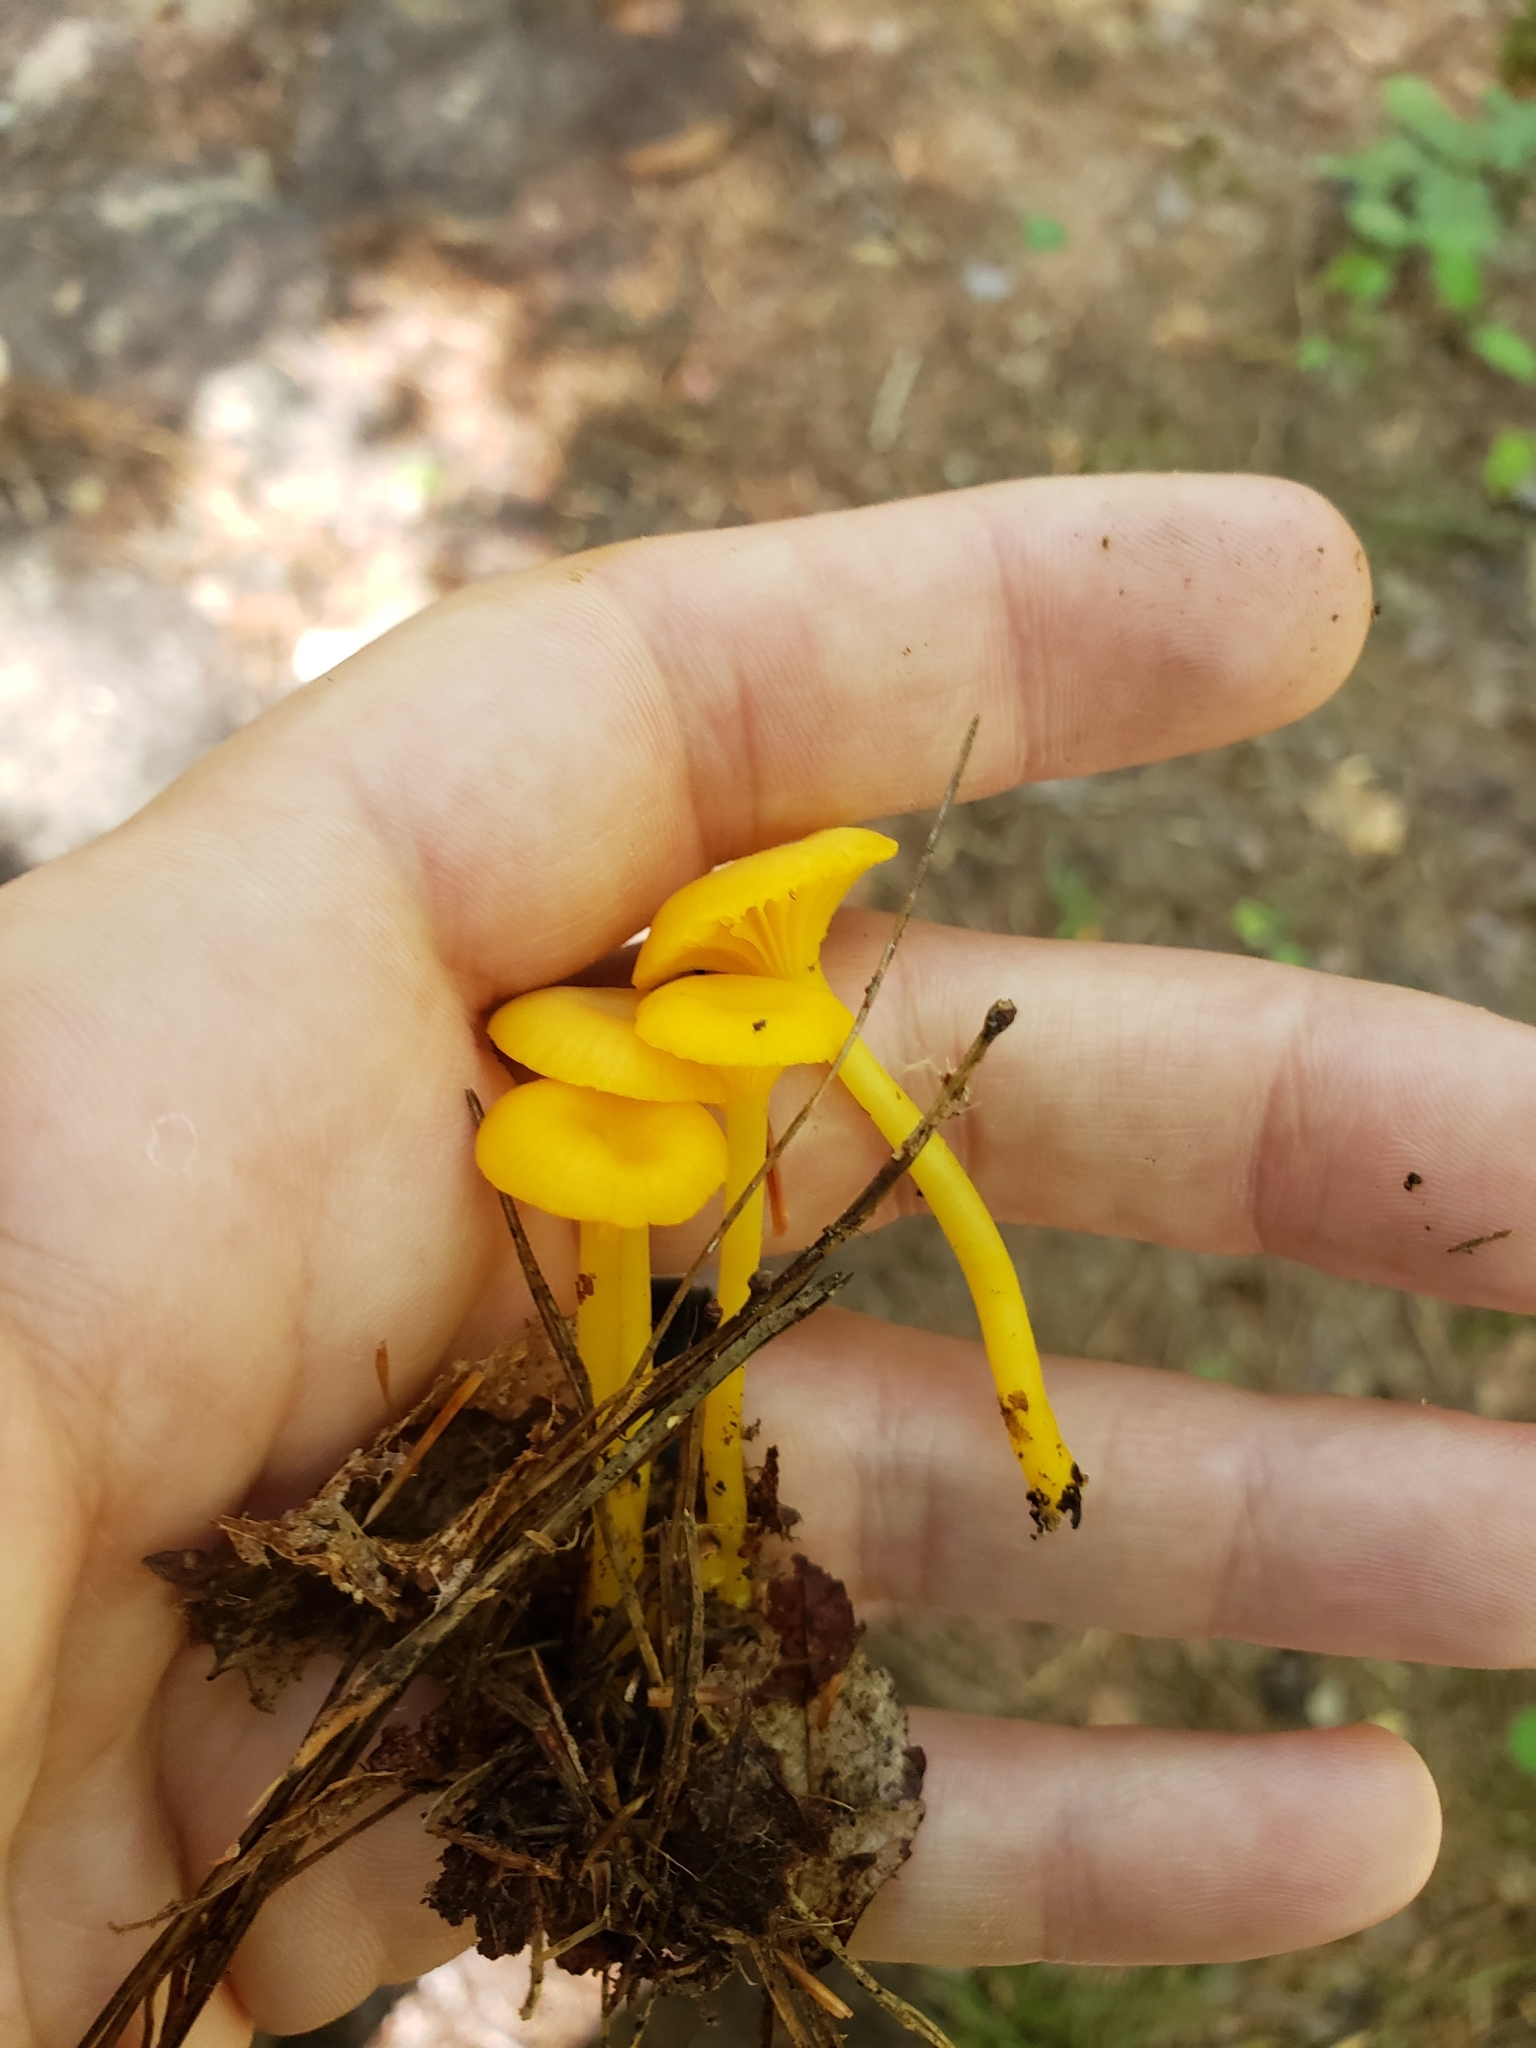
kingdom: Fungi
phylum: Basidiomycota
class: Agaricomycetes
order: Agaricales
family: Hygrophoraceae
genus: Gloioxanthomyces
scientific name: Gloioxanthomyces nitidus
